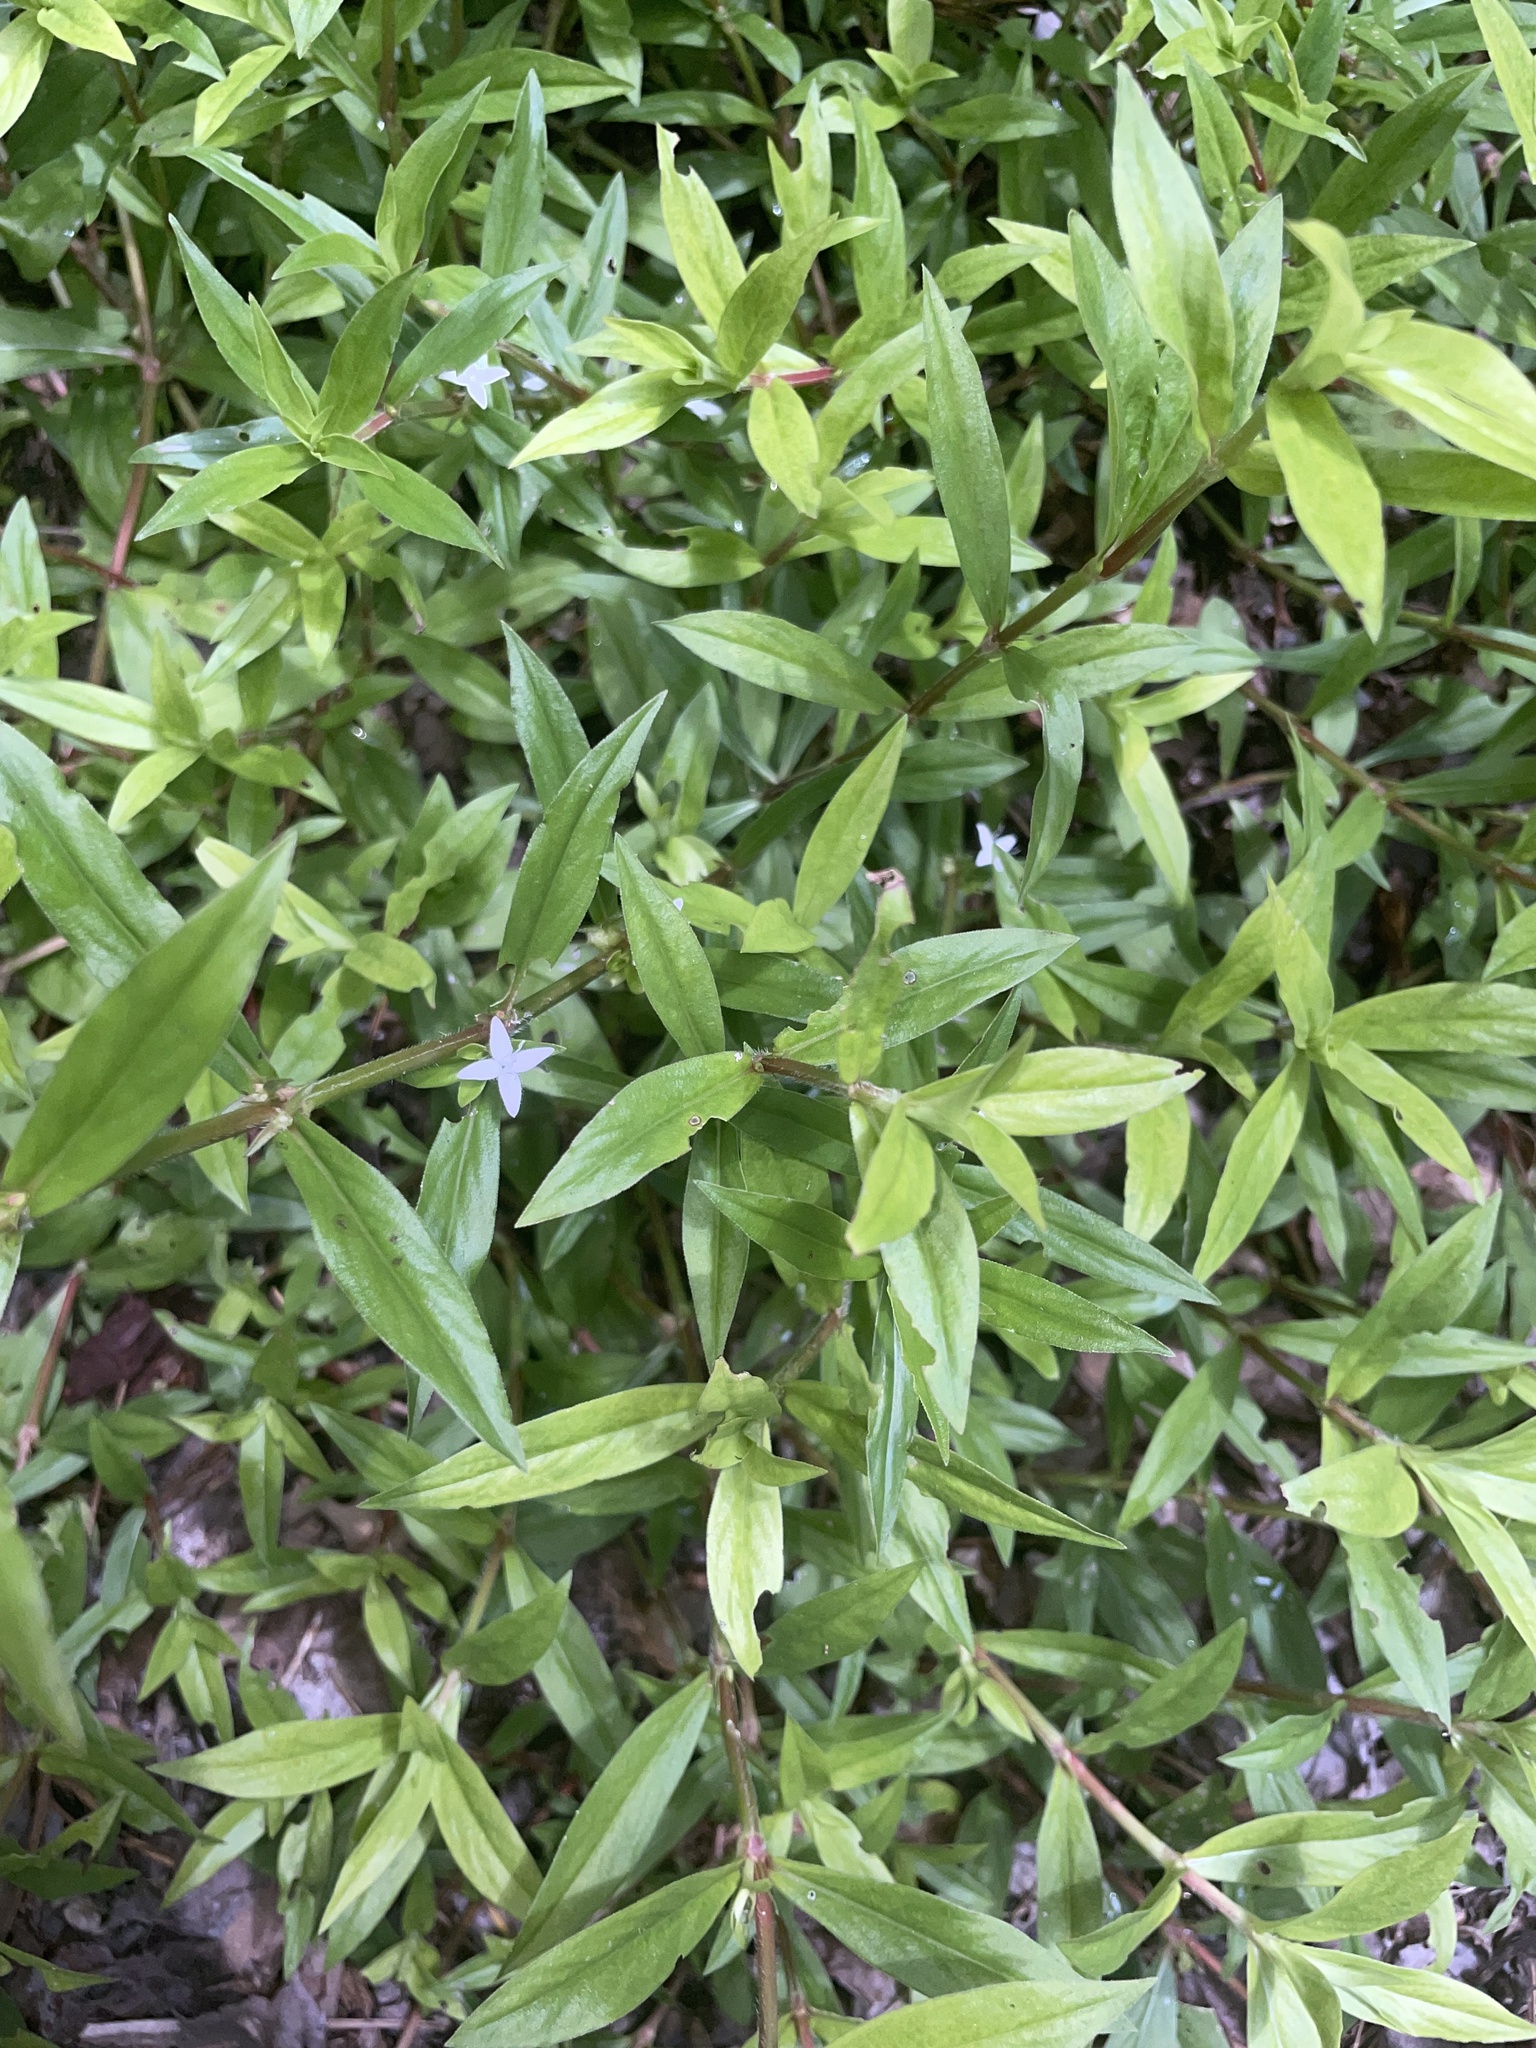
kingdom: Plantae
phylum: Tracheophyta
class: Magnoliopsida
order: Gentianales
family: Rubiaceae
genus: Diodia
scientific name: Diodia virginiana
